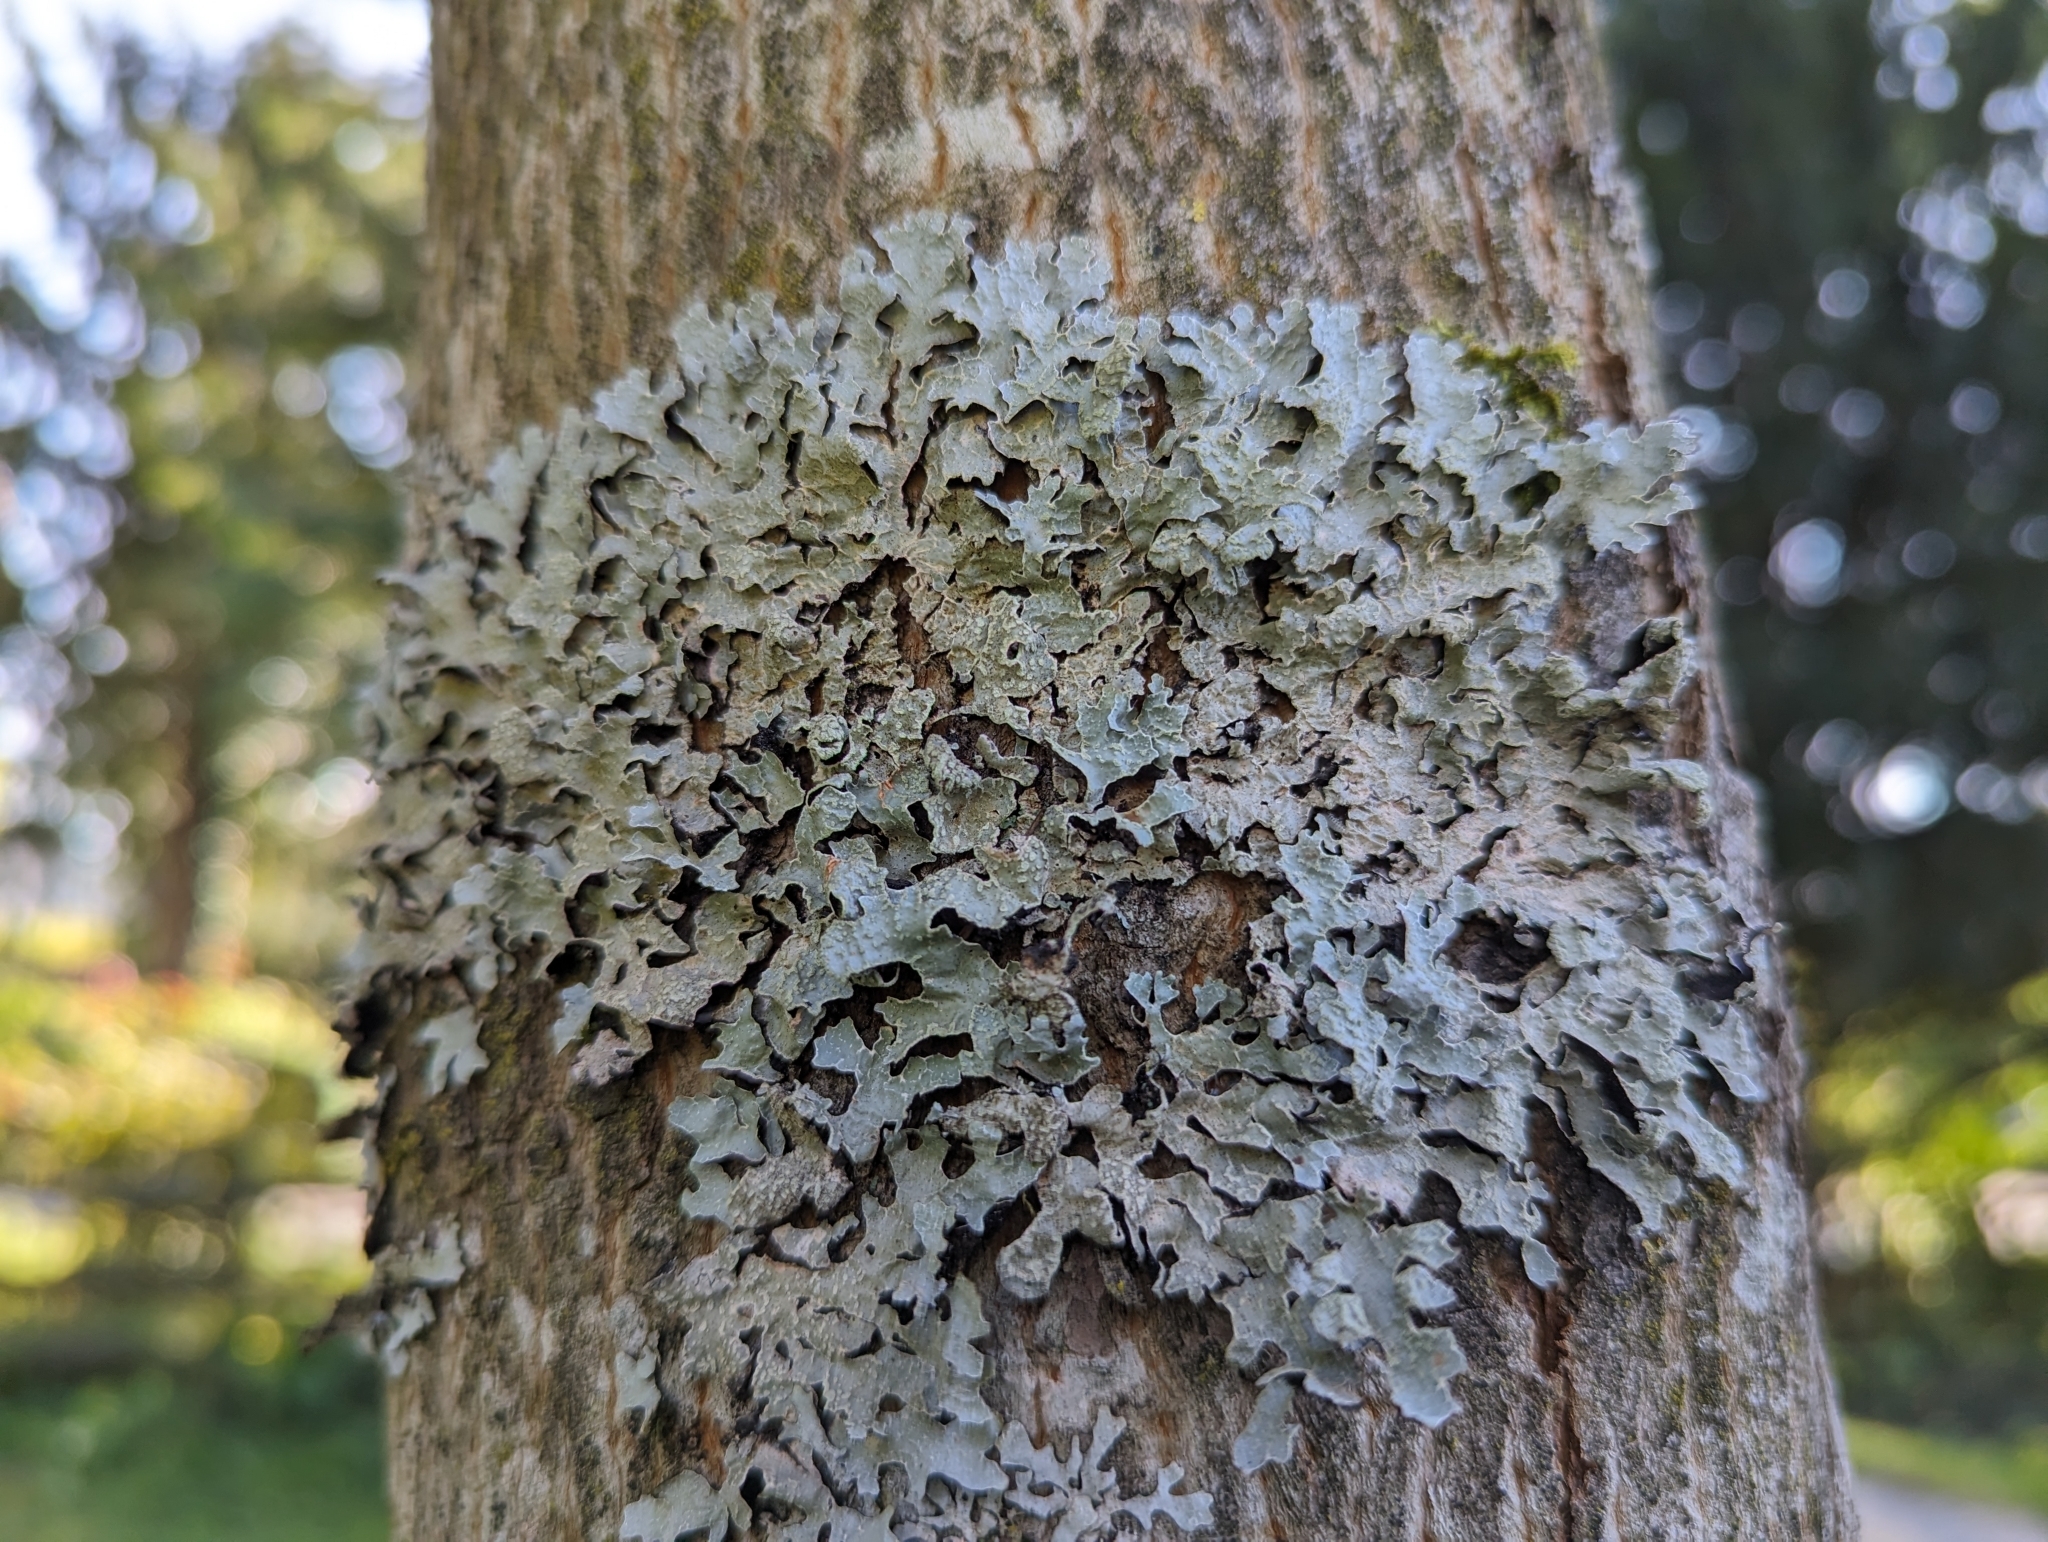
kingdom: Fungi
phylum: Ascomycota
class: Lecanoromycetes
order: Lecanorales
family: Parmeliaceae
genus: Parmelia
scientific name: Parmelia sulcata
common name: Netted shield lichen
